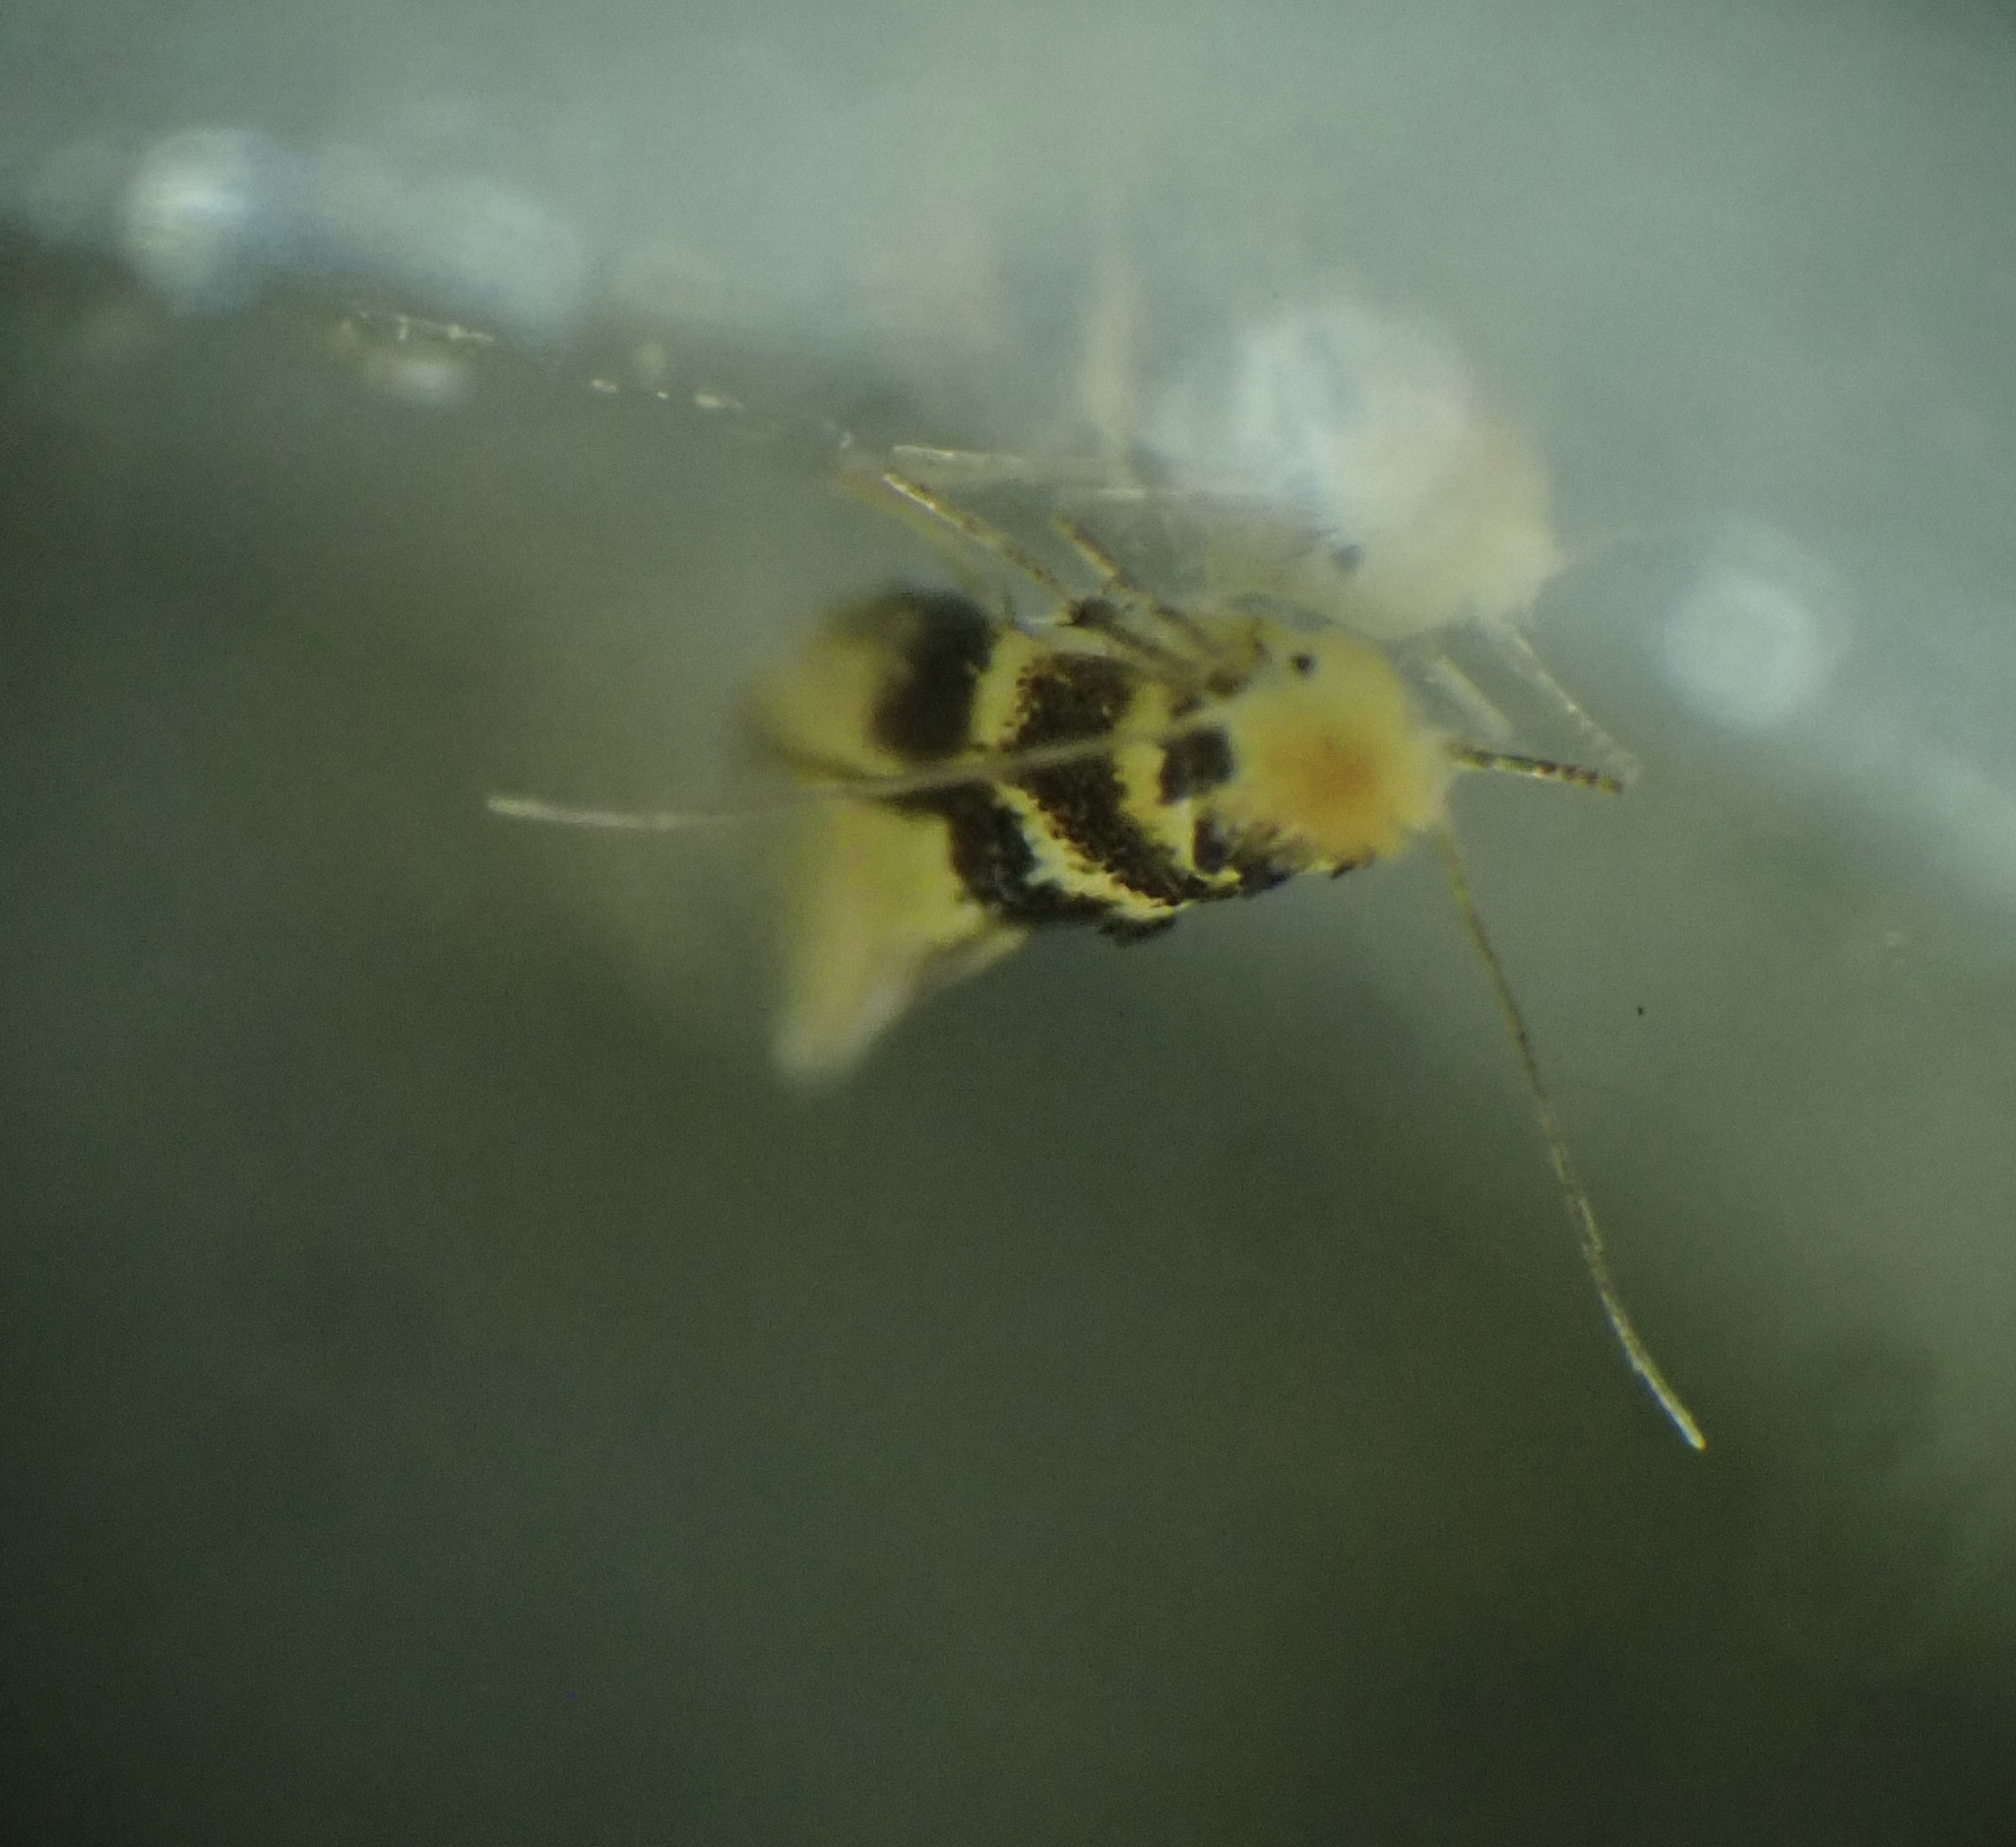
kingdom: Animalia
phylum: Arthropoda
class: Insecta
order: Lepidoptera
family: Bucculatricidae
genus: Bucculatrix
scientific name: Bucculatrix thoracella
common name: Lime bent-wing
